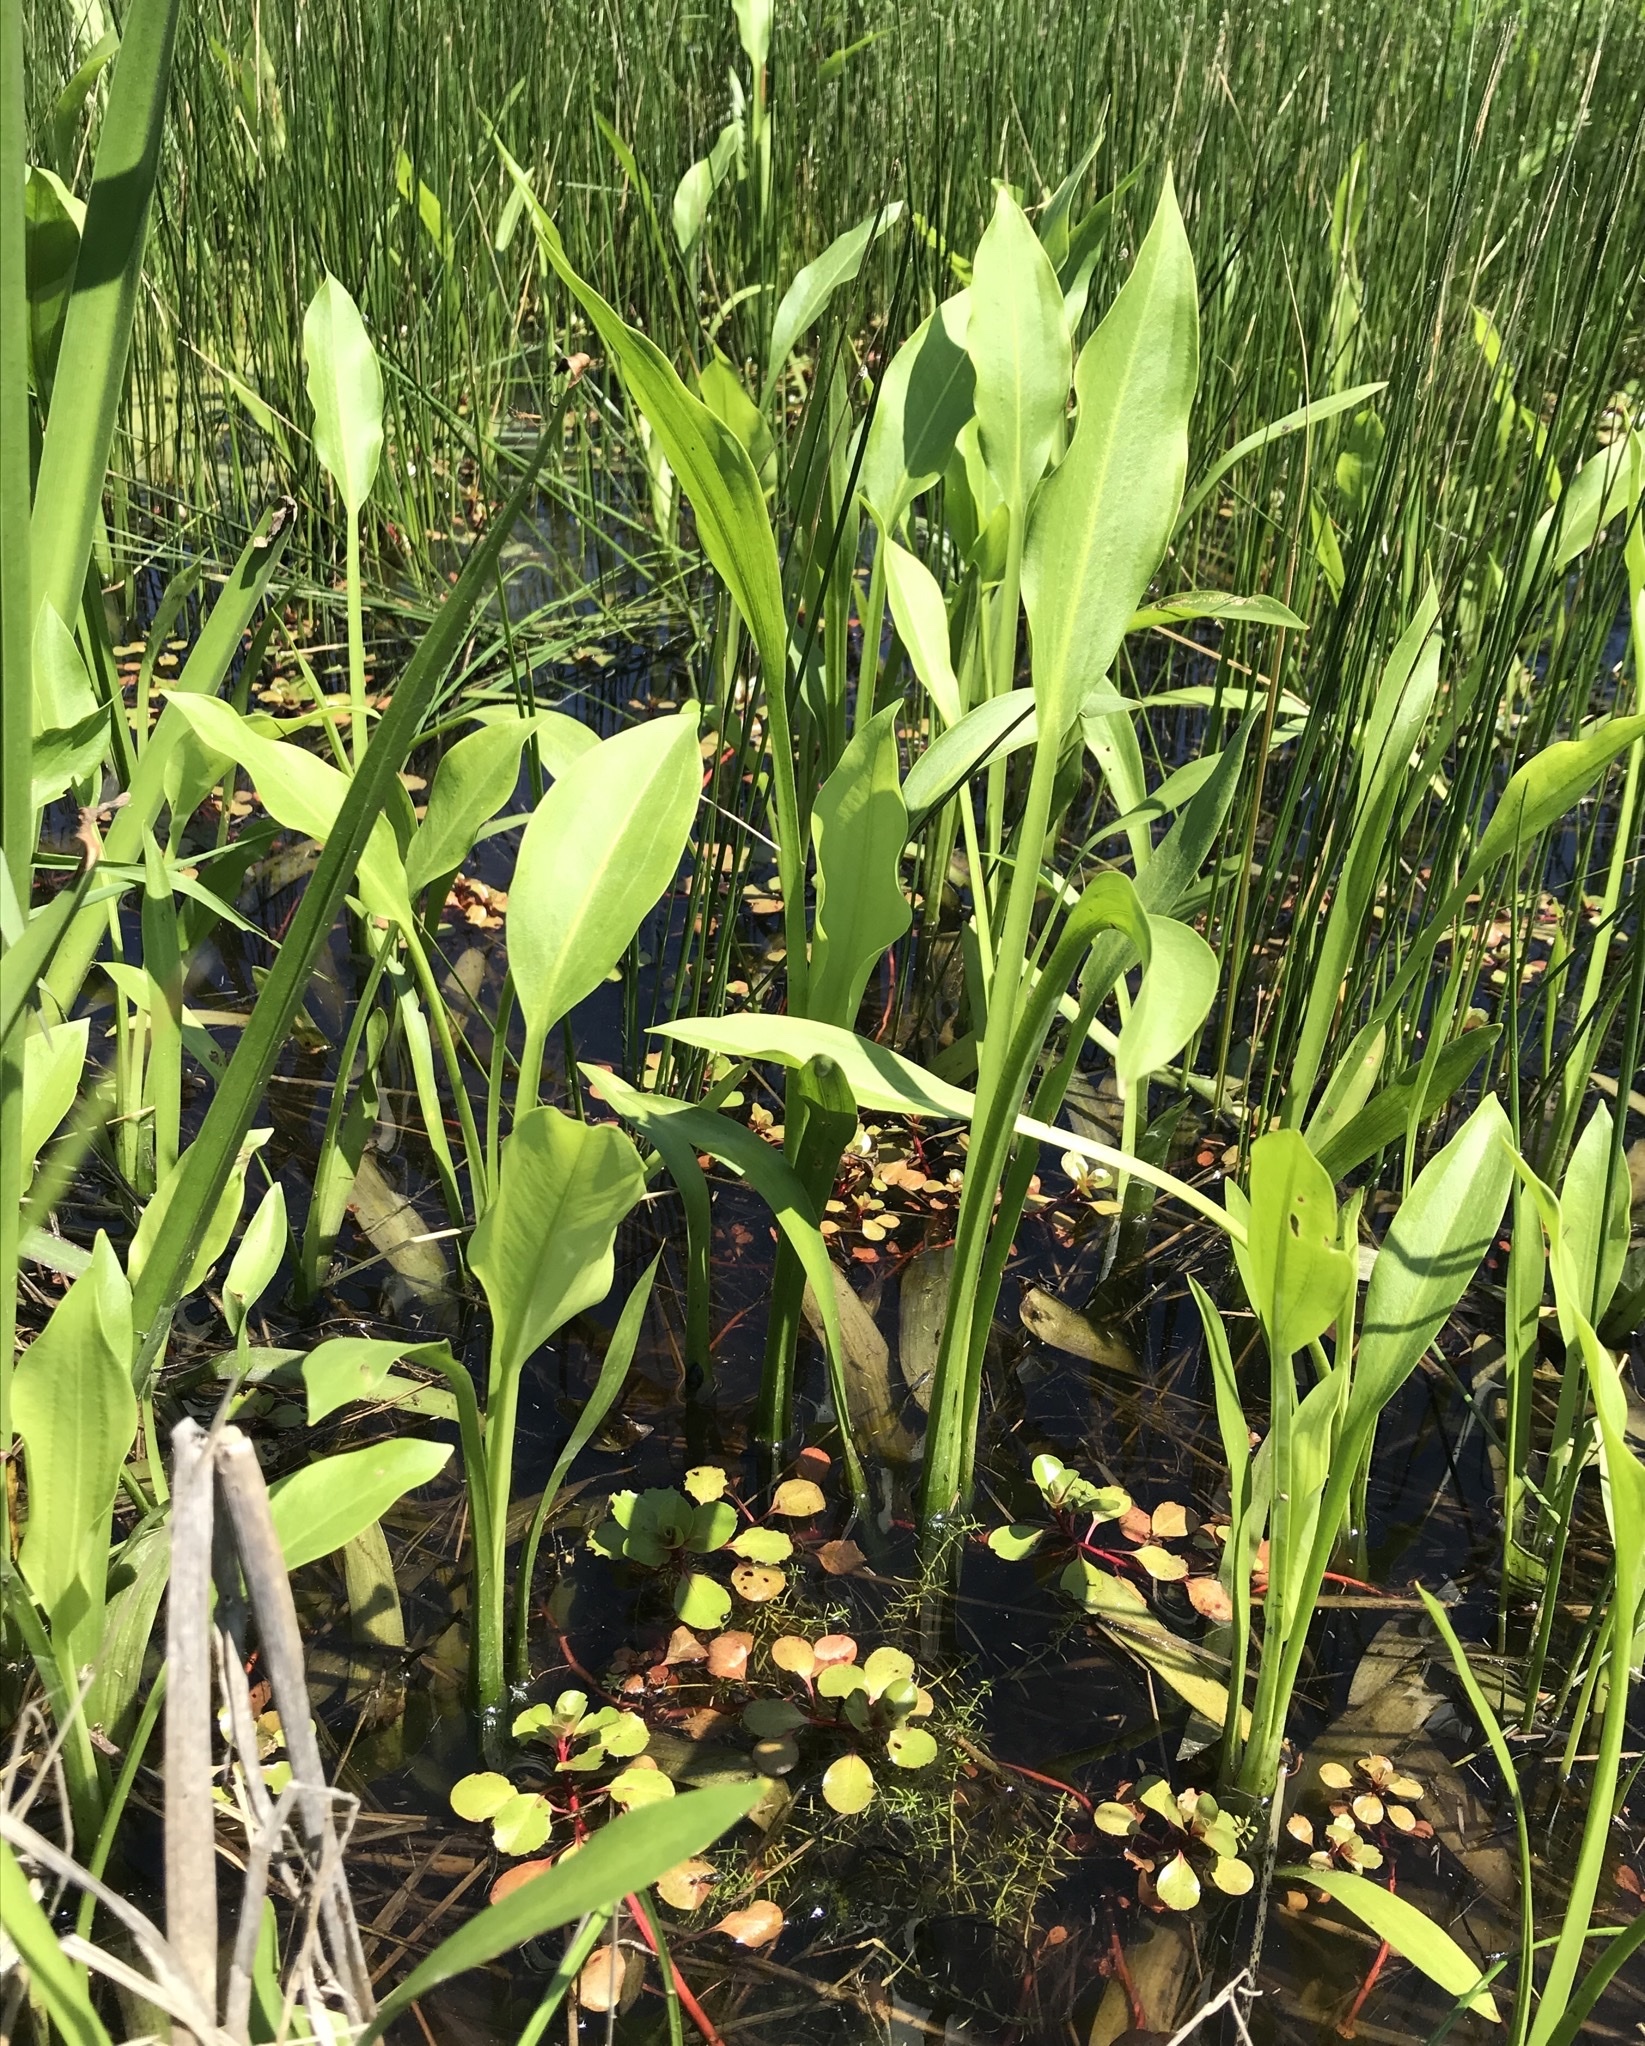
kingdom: Plantae
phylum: Tracheophyta
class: Liliopsida
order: Alismatales
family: Alismataceae
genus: Sagittaria
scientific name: Sagittaria platyphylla
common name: Broad-leaf arrowhead
